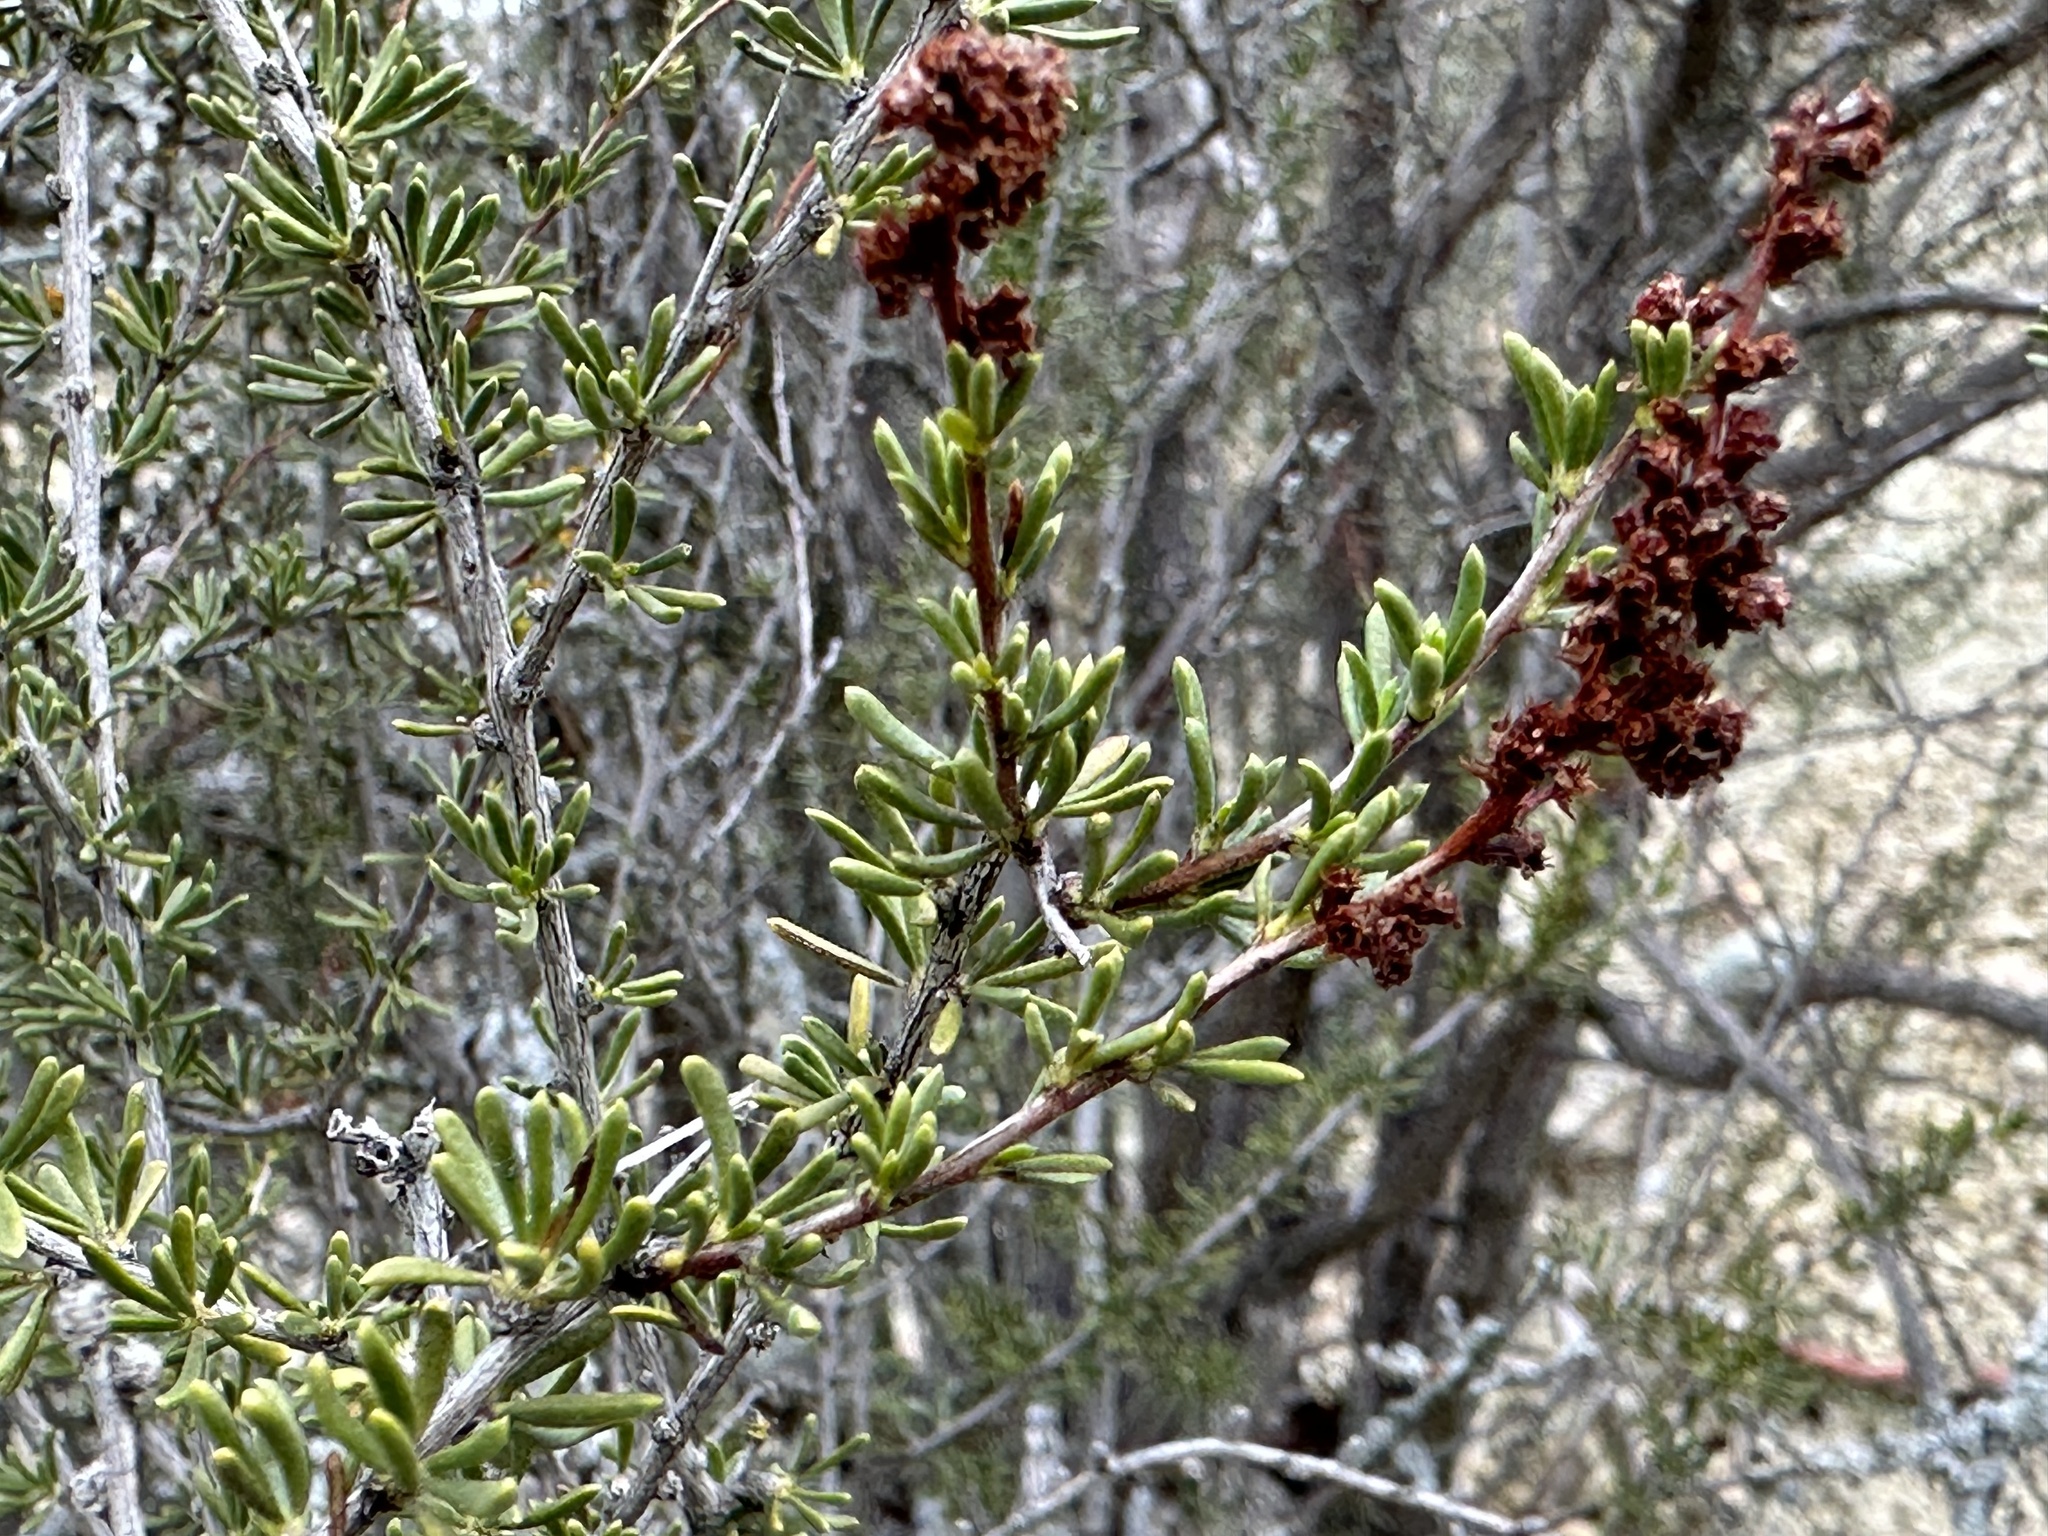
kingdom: Plantae
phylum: Tracheophyta
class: Magnoliopsida
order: Rosales
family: Rosaceae
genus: Adenostoma
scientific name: Adenostoma fasciculatum
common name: Chamise
